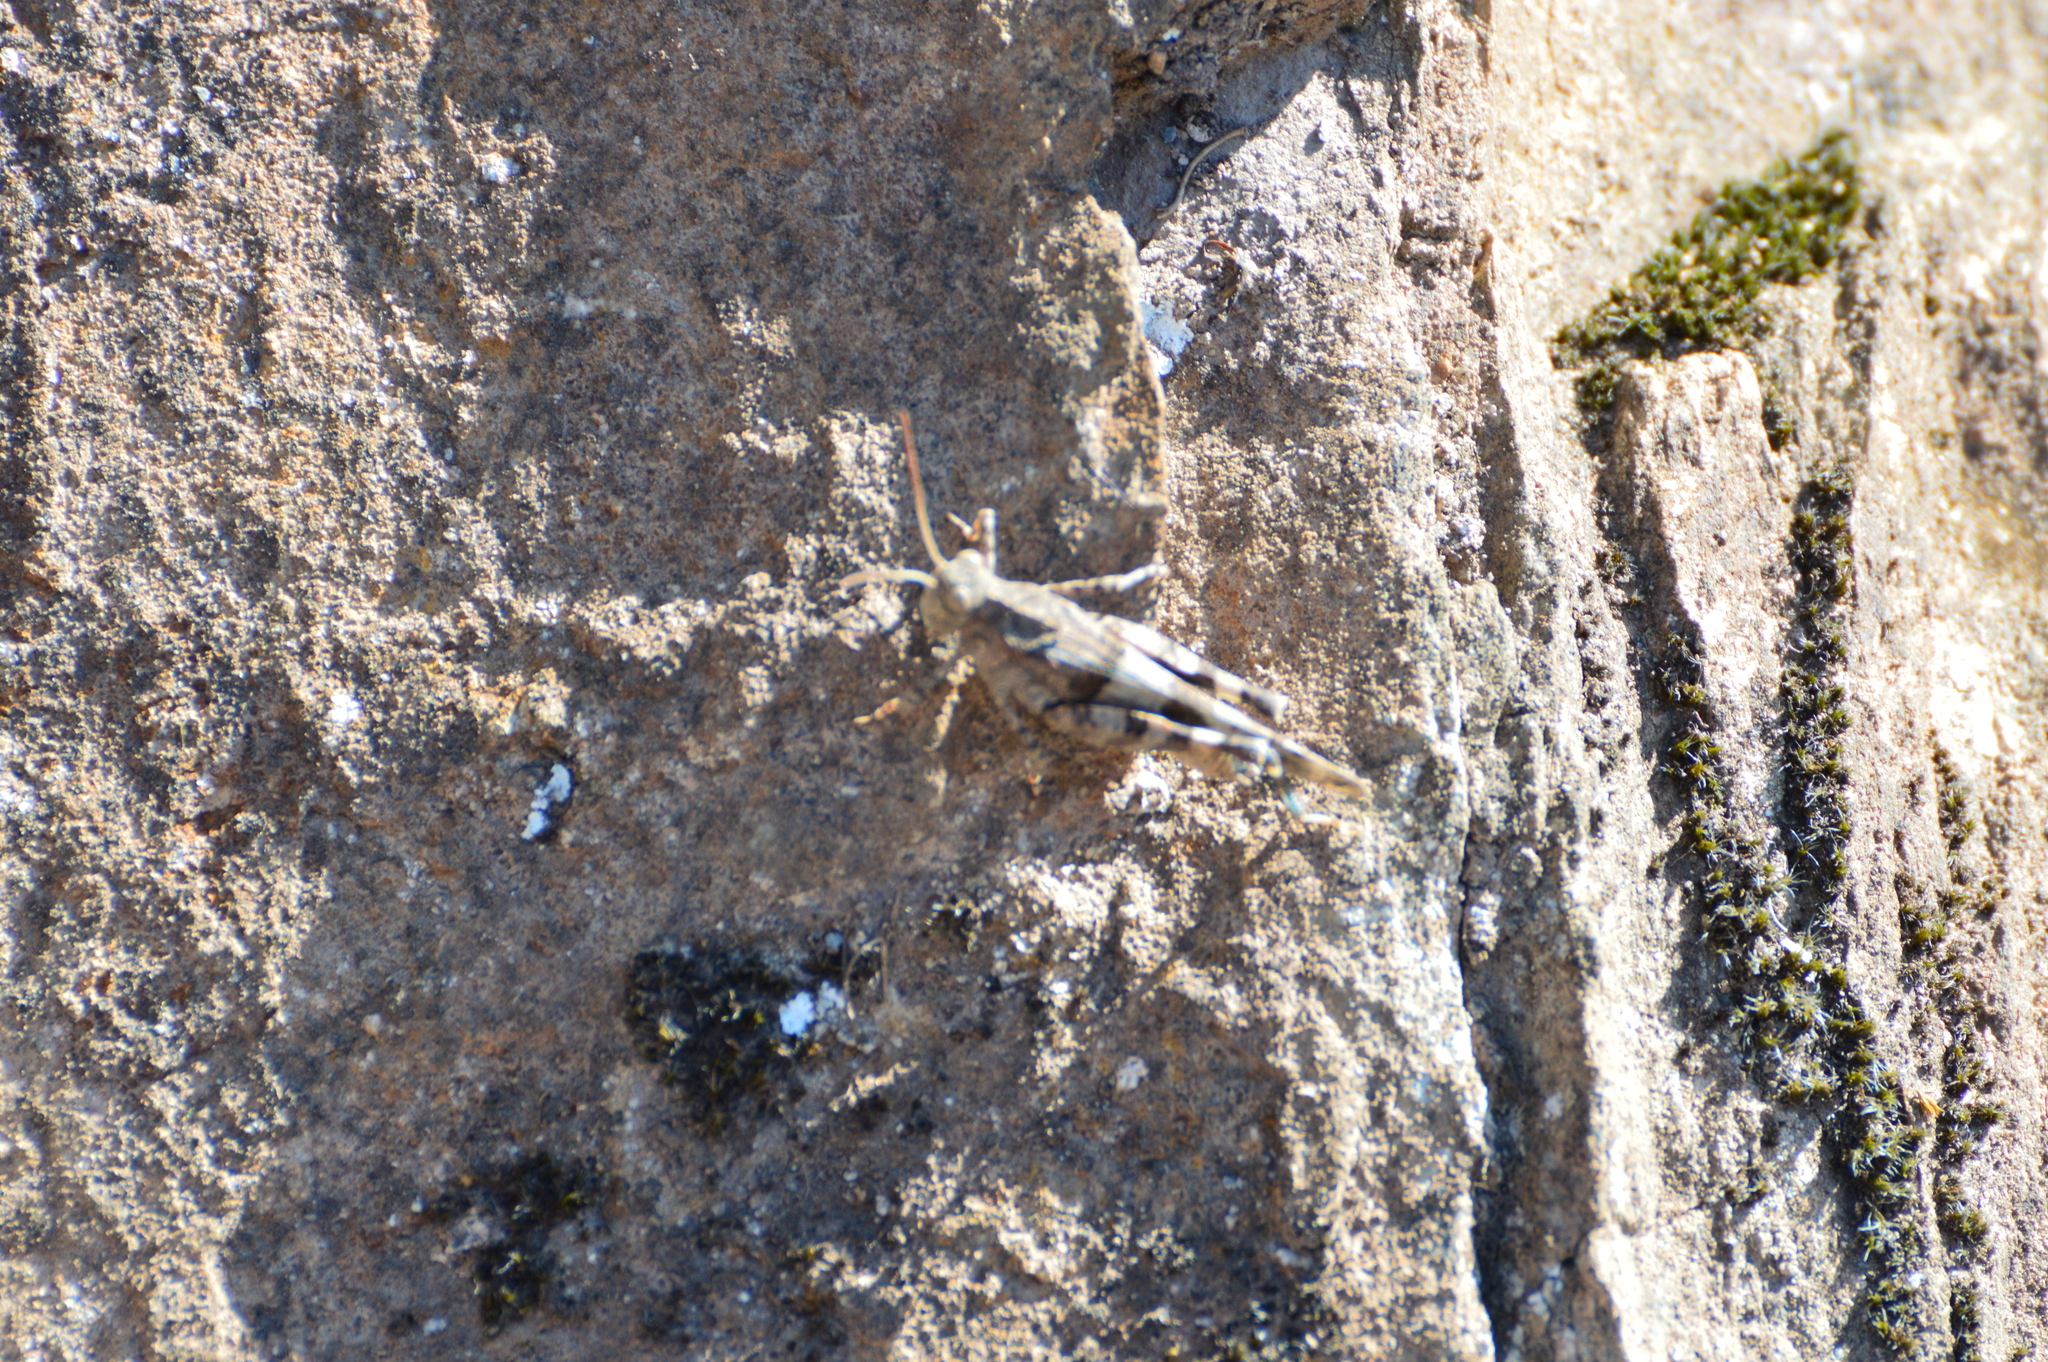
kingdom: Animalia
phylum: Arthropoda
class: Insecta
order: Orthoptera
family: Acrididae
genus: Oedipoda
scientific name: Oedipoda caerulescens
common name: Blue-winged grasshopper
